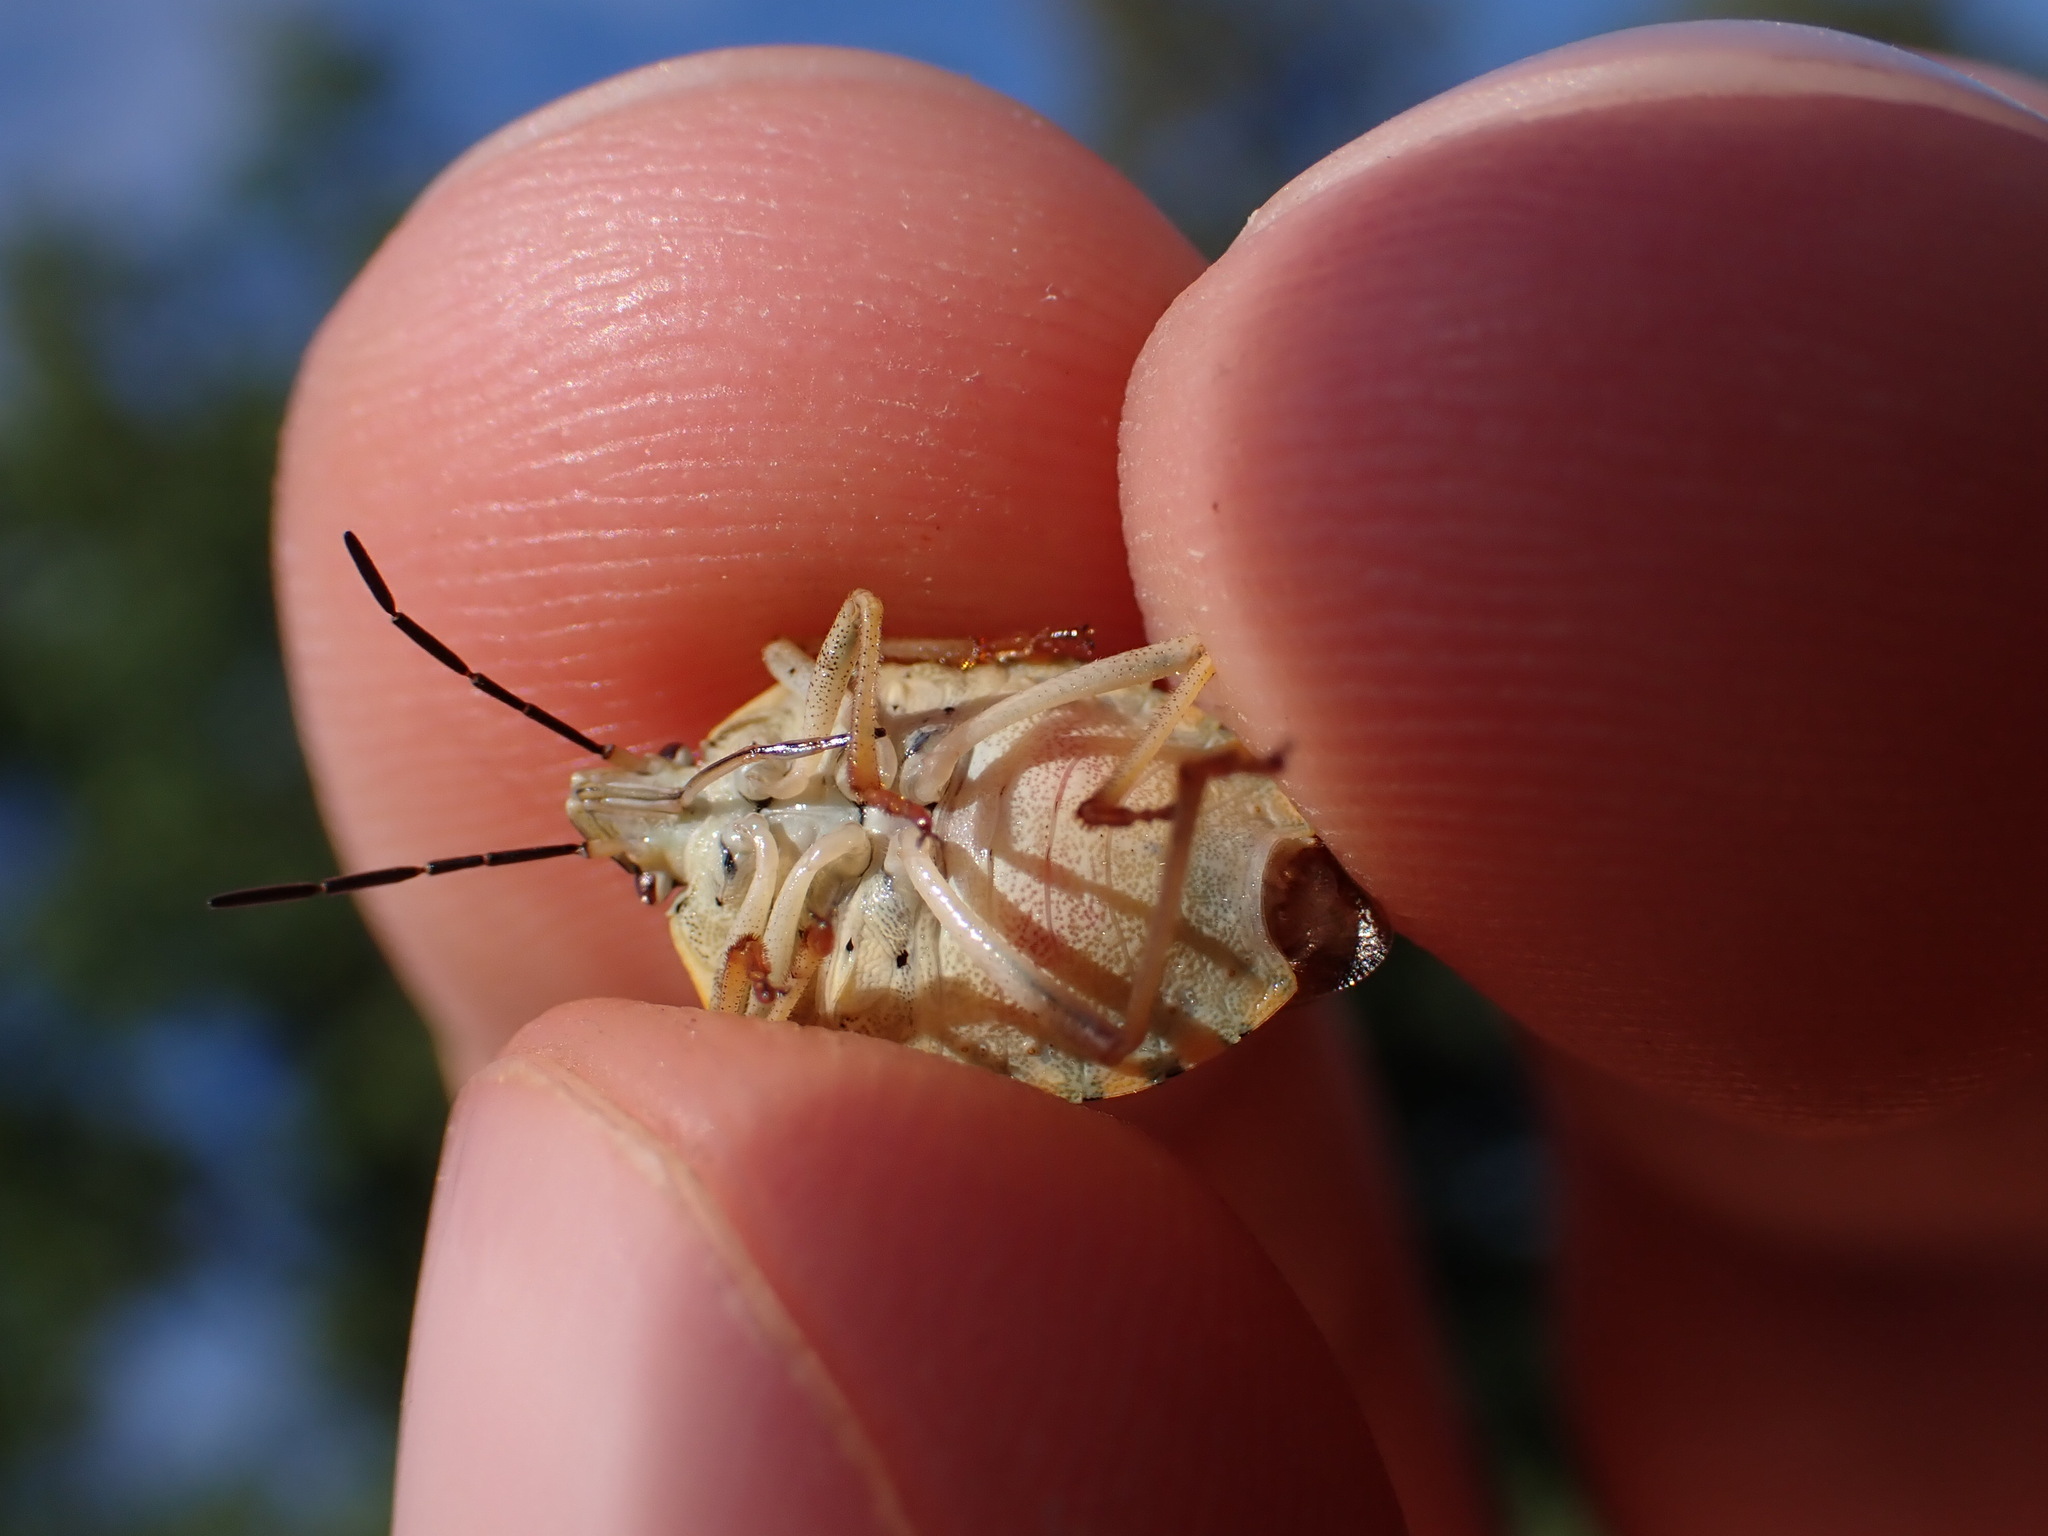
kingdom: Animalia
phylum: Arthropoda
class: Insecta
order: Hemiptera
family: Pentatomidae
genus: Carpocoris
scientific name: Carpocoris purpureipennis
